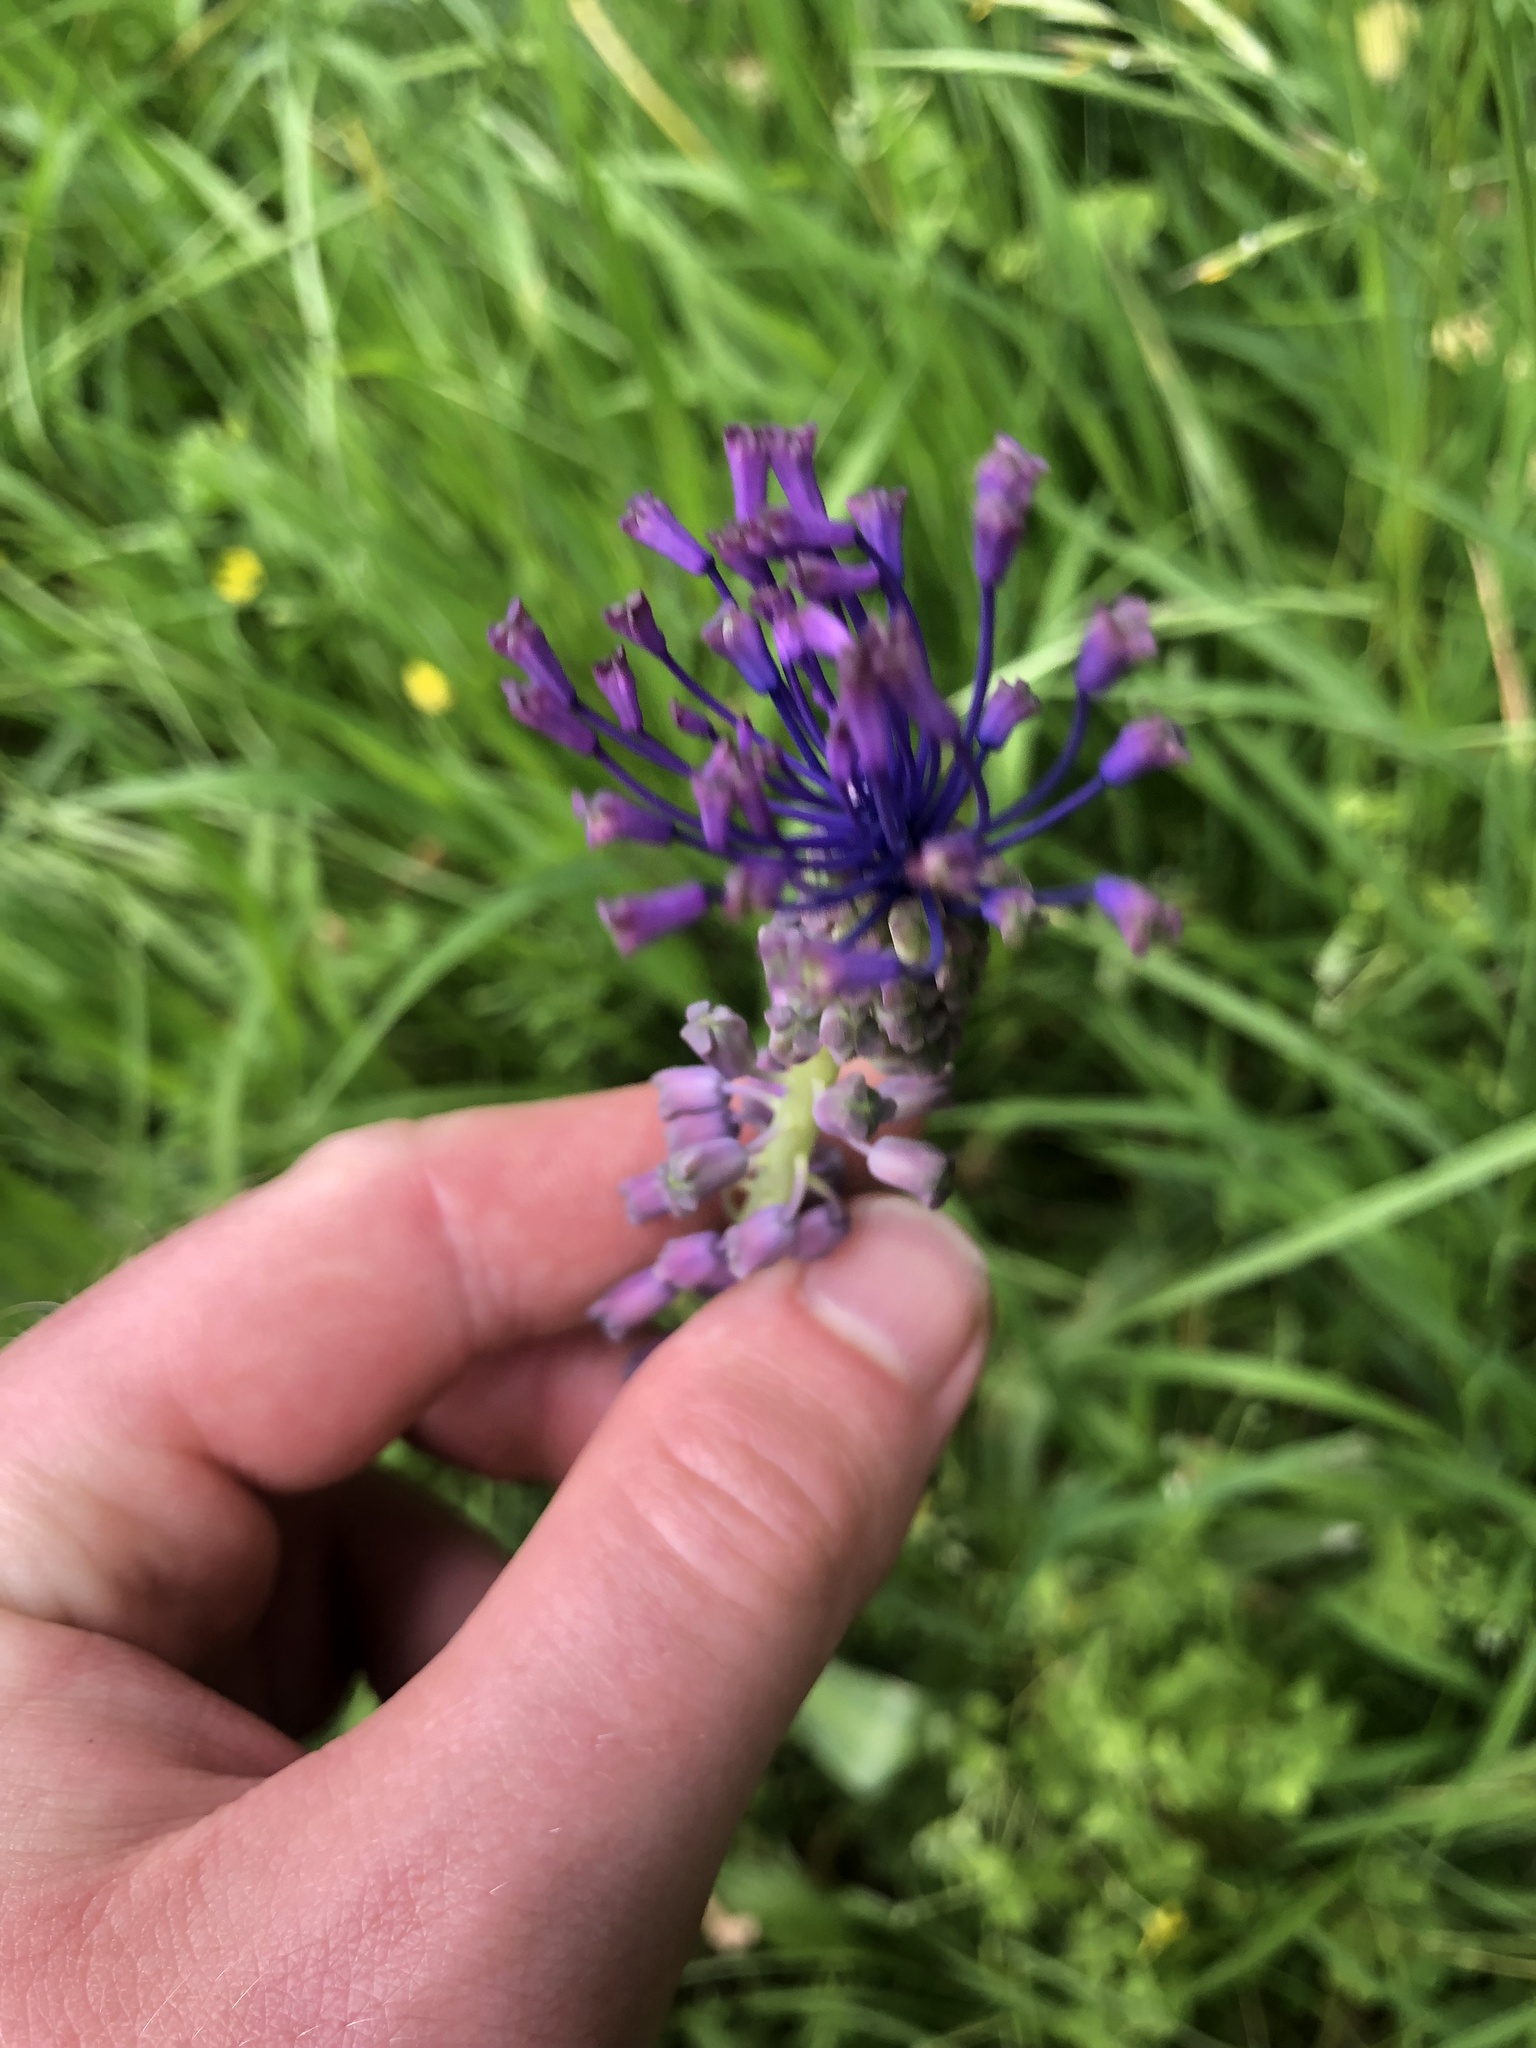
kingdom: Plantae
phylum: Tracheophyta
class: Liliopsida
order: Asparagales
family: Asparagaceae
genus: Muscari
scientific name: Muscari comosum
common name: Tassel hyacinth
